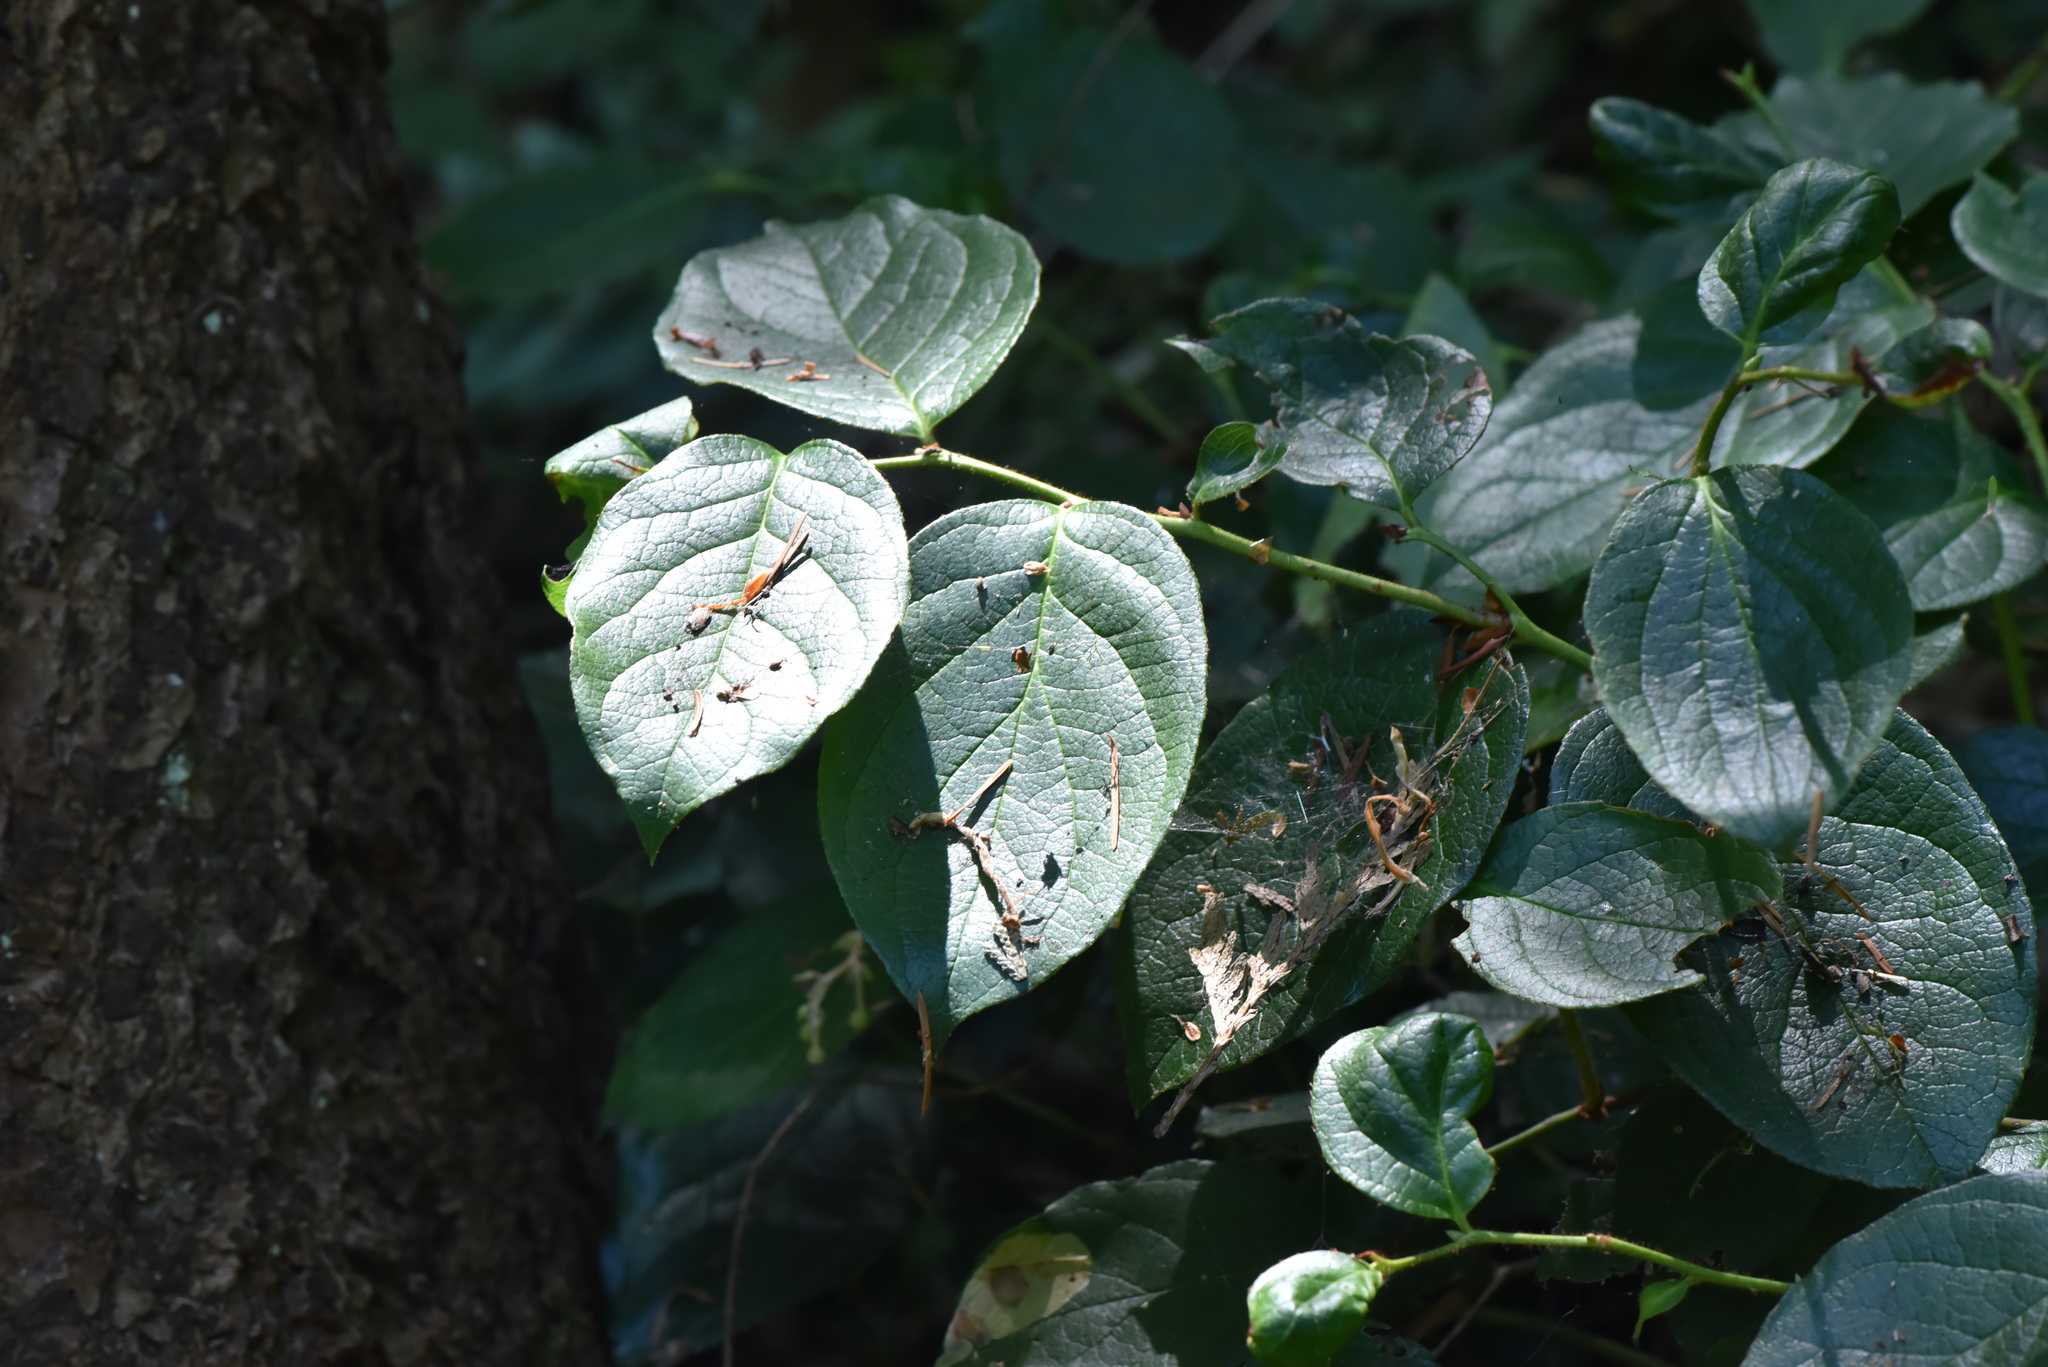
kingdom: Plantae
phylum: Tracheophyta
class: Magnoliopsida
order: Ericales
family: Ericaceae
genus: Gaultheria
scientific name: Gaultheria shallon
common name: Shallon
